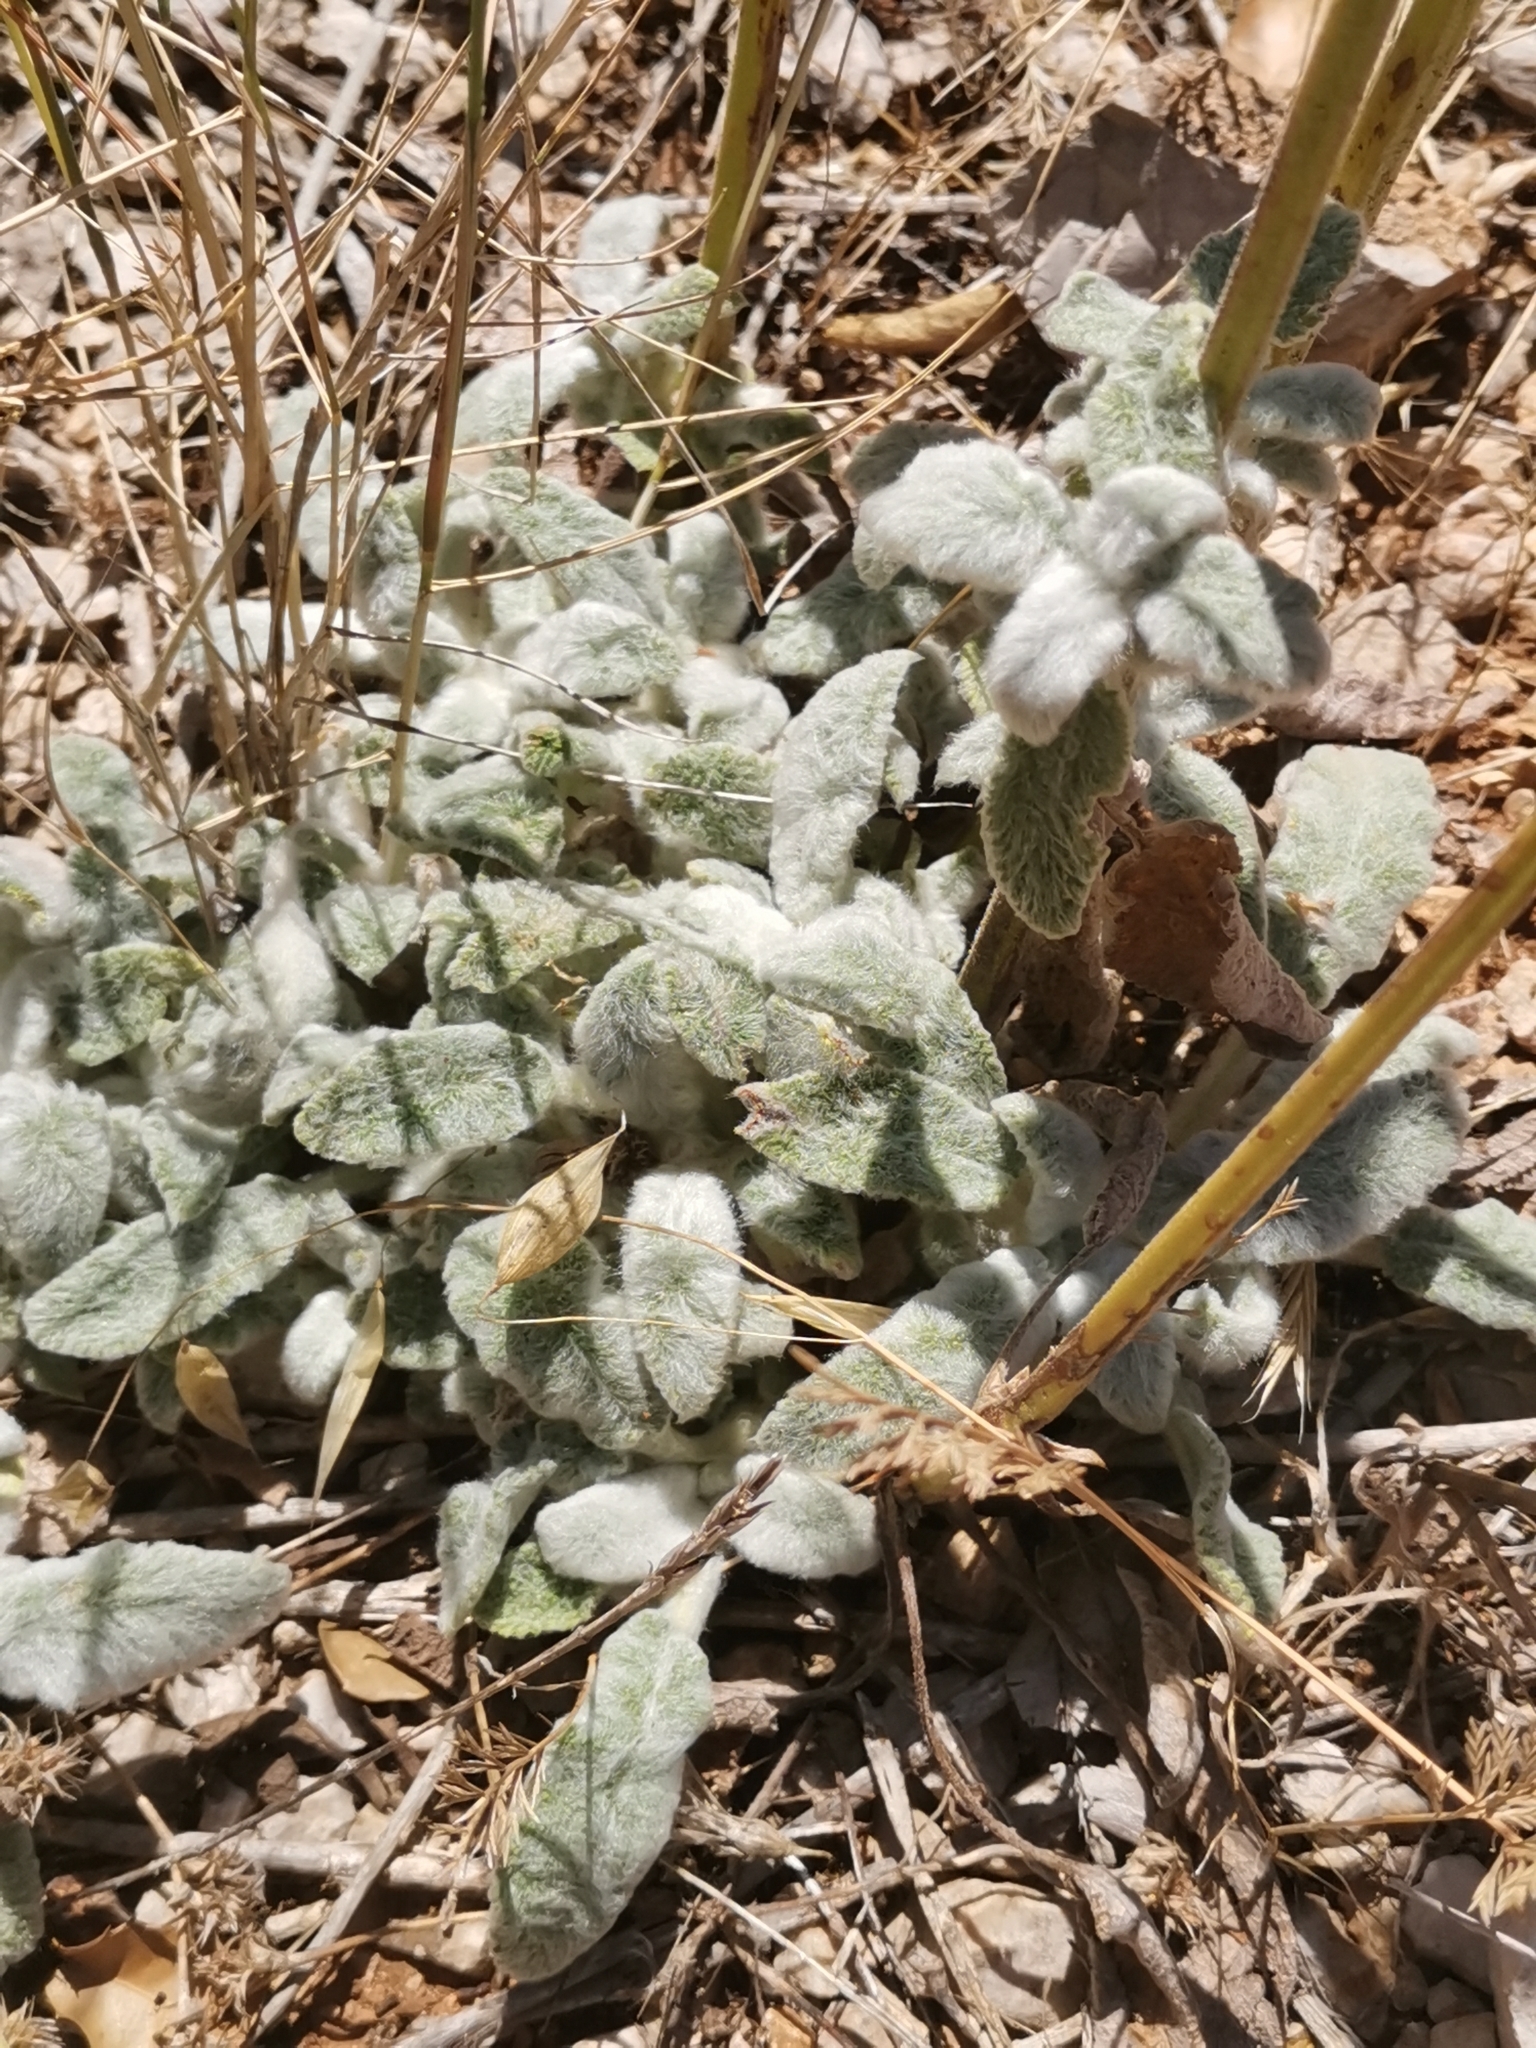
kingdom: Plantae
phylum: Tracheophyta
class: Magnoliopsida
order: Lamiales
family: Lamiaceae
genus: Stachys
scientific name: Stachys cretica
